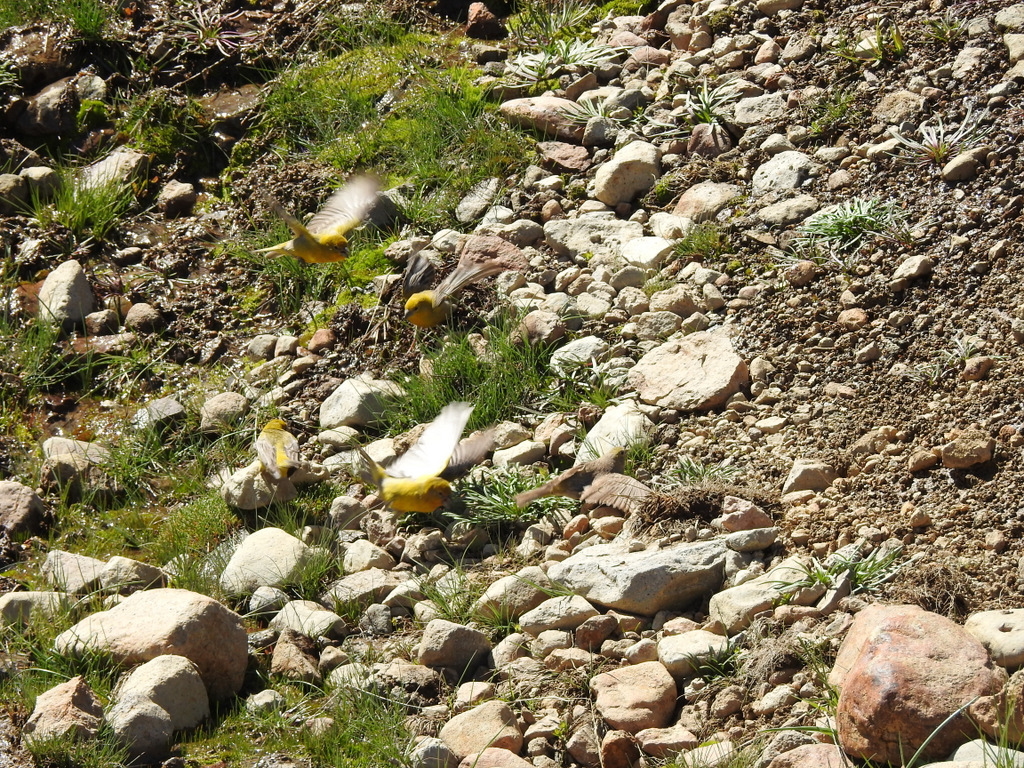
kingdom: Animalia
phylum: Chordata
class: Aves
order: Passeriformes
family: Thraupidae
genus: Sicalis
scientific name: Sicalis auriventris
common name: Greater yellow finch
